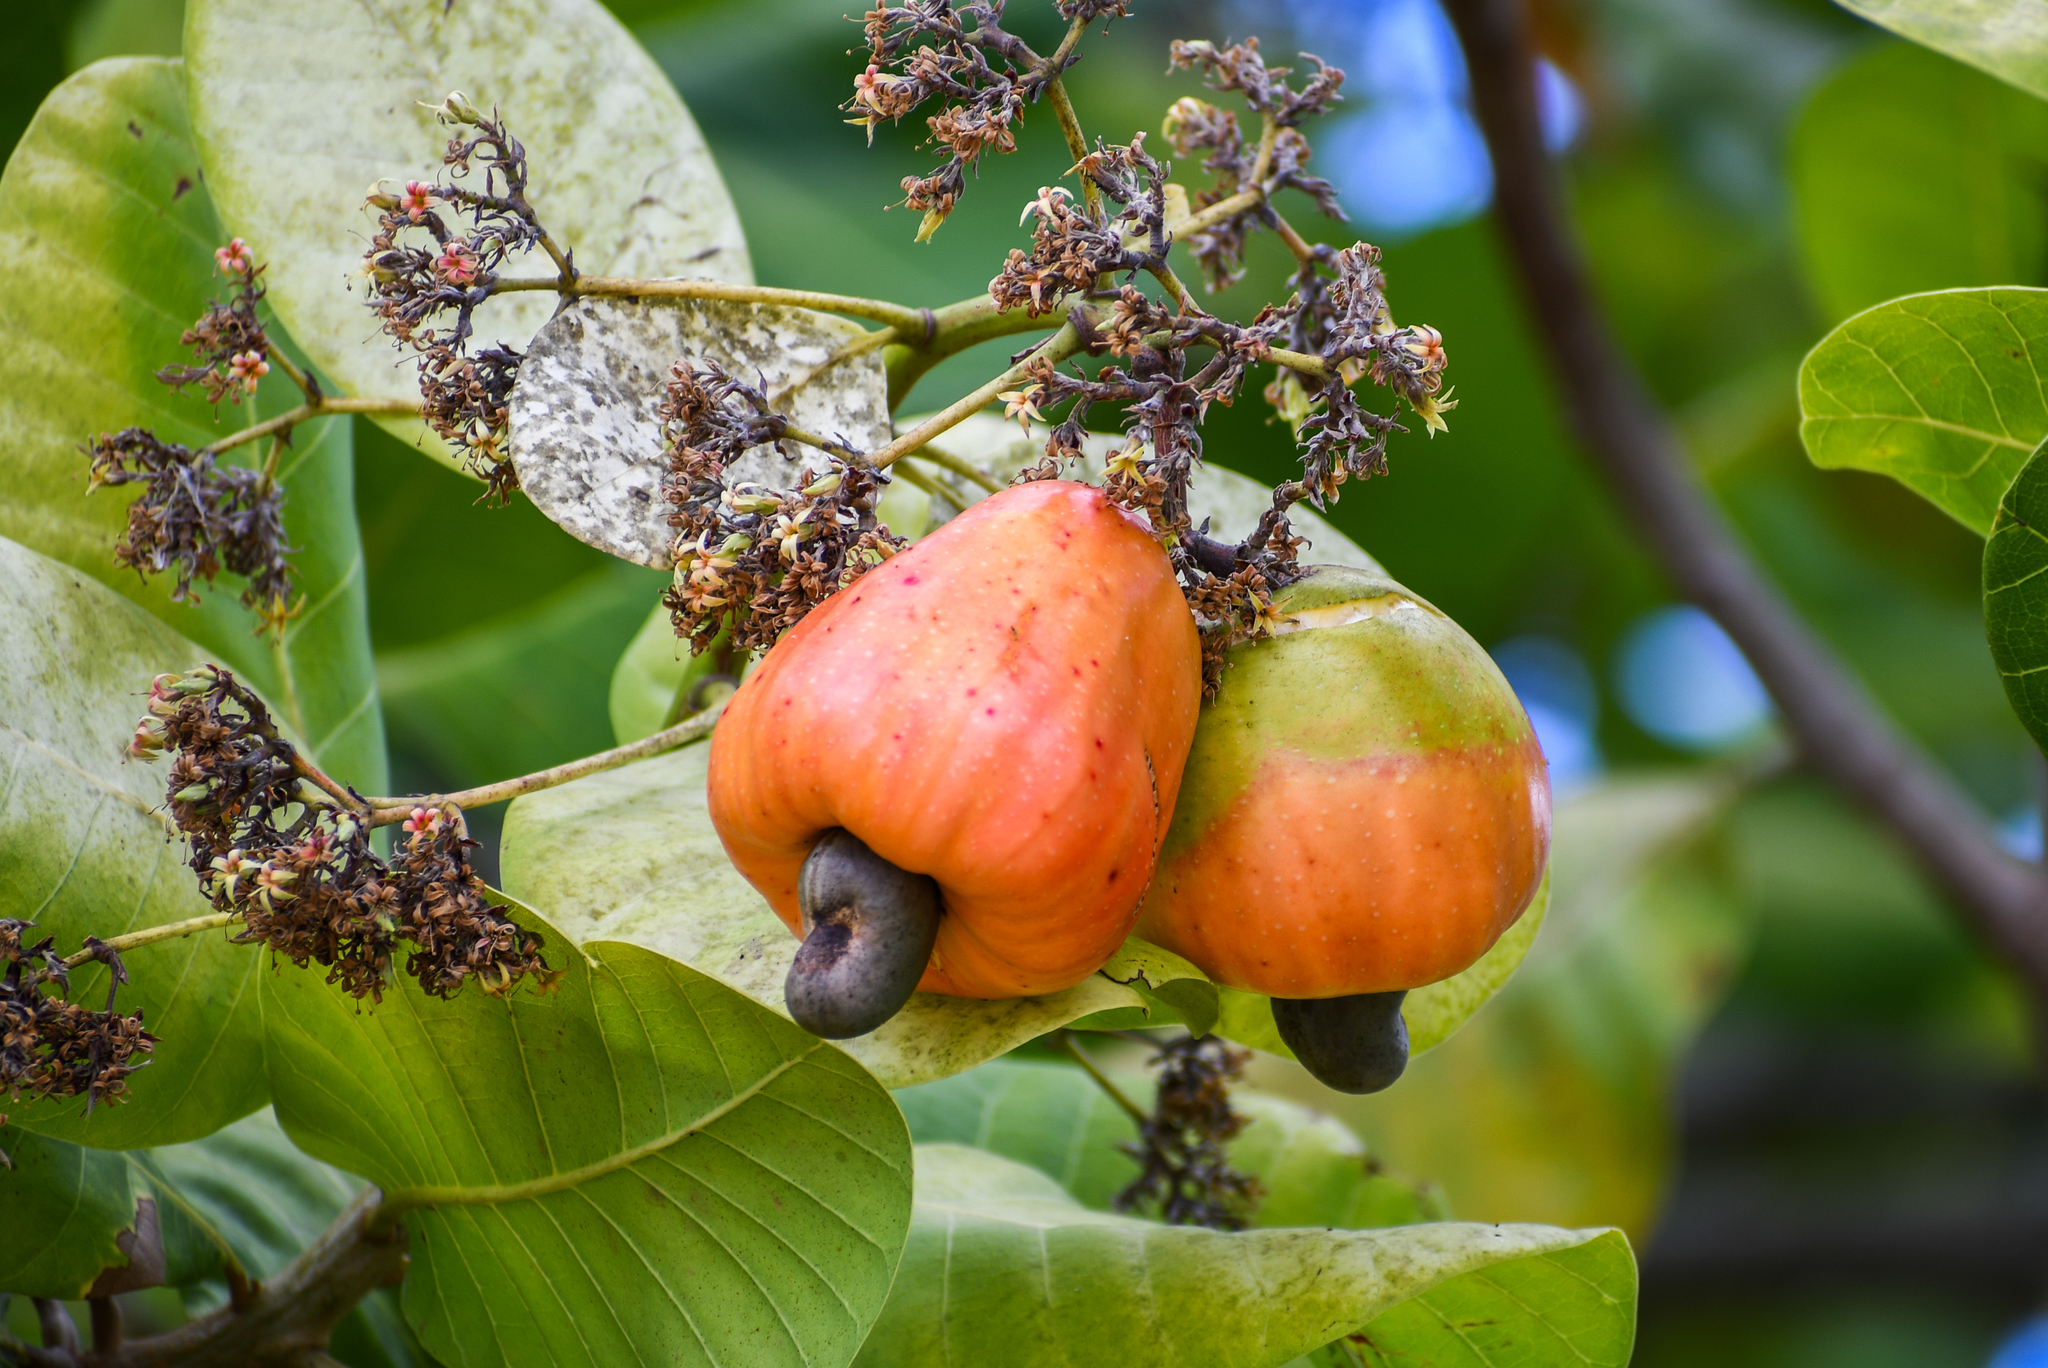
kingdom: Plantae
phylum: Tracheophyta
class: Magnoliopsida
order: Sapindales
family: Anacardiaceae
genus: Anacardium
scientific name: Anacardium occidentale
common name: Cashew
